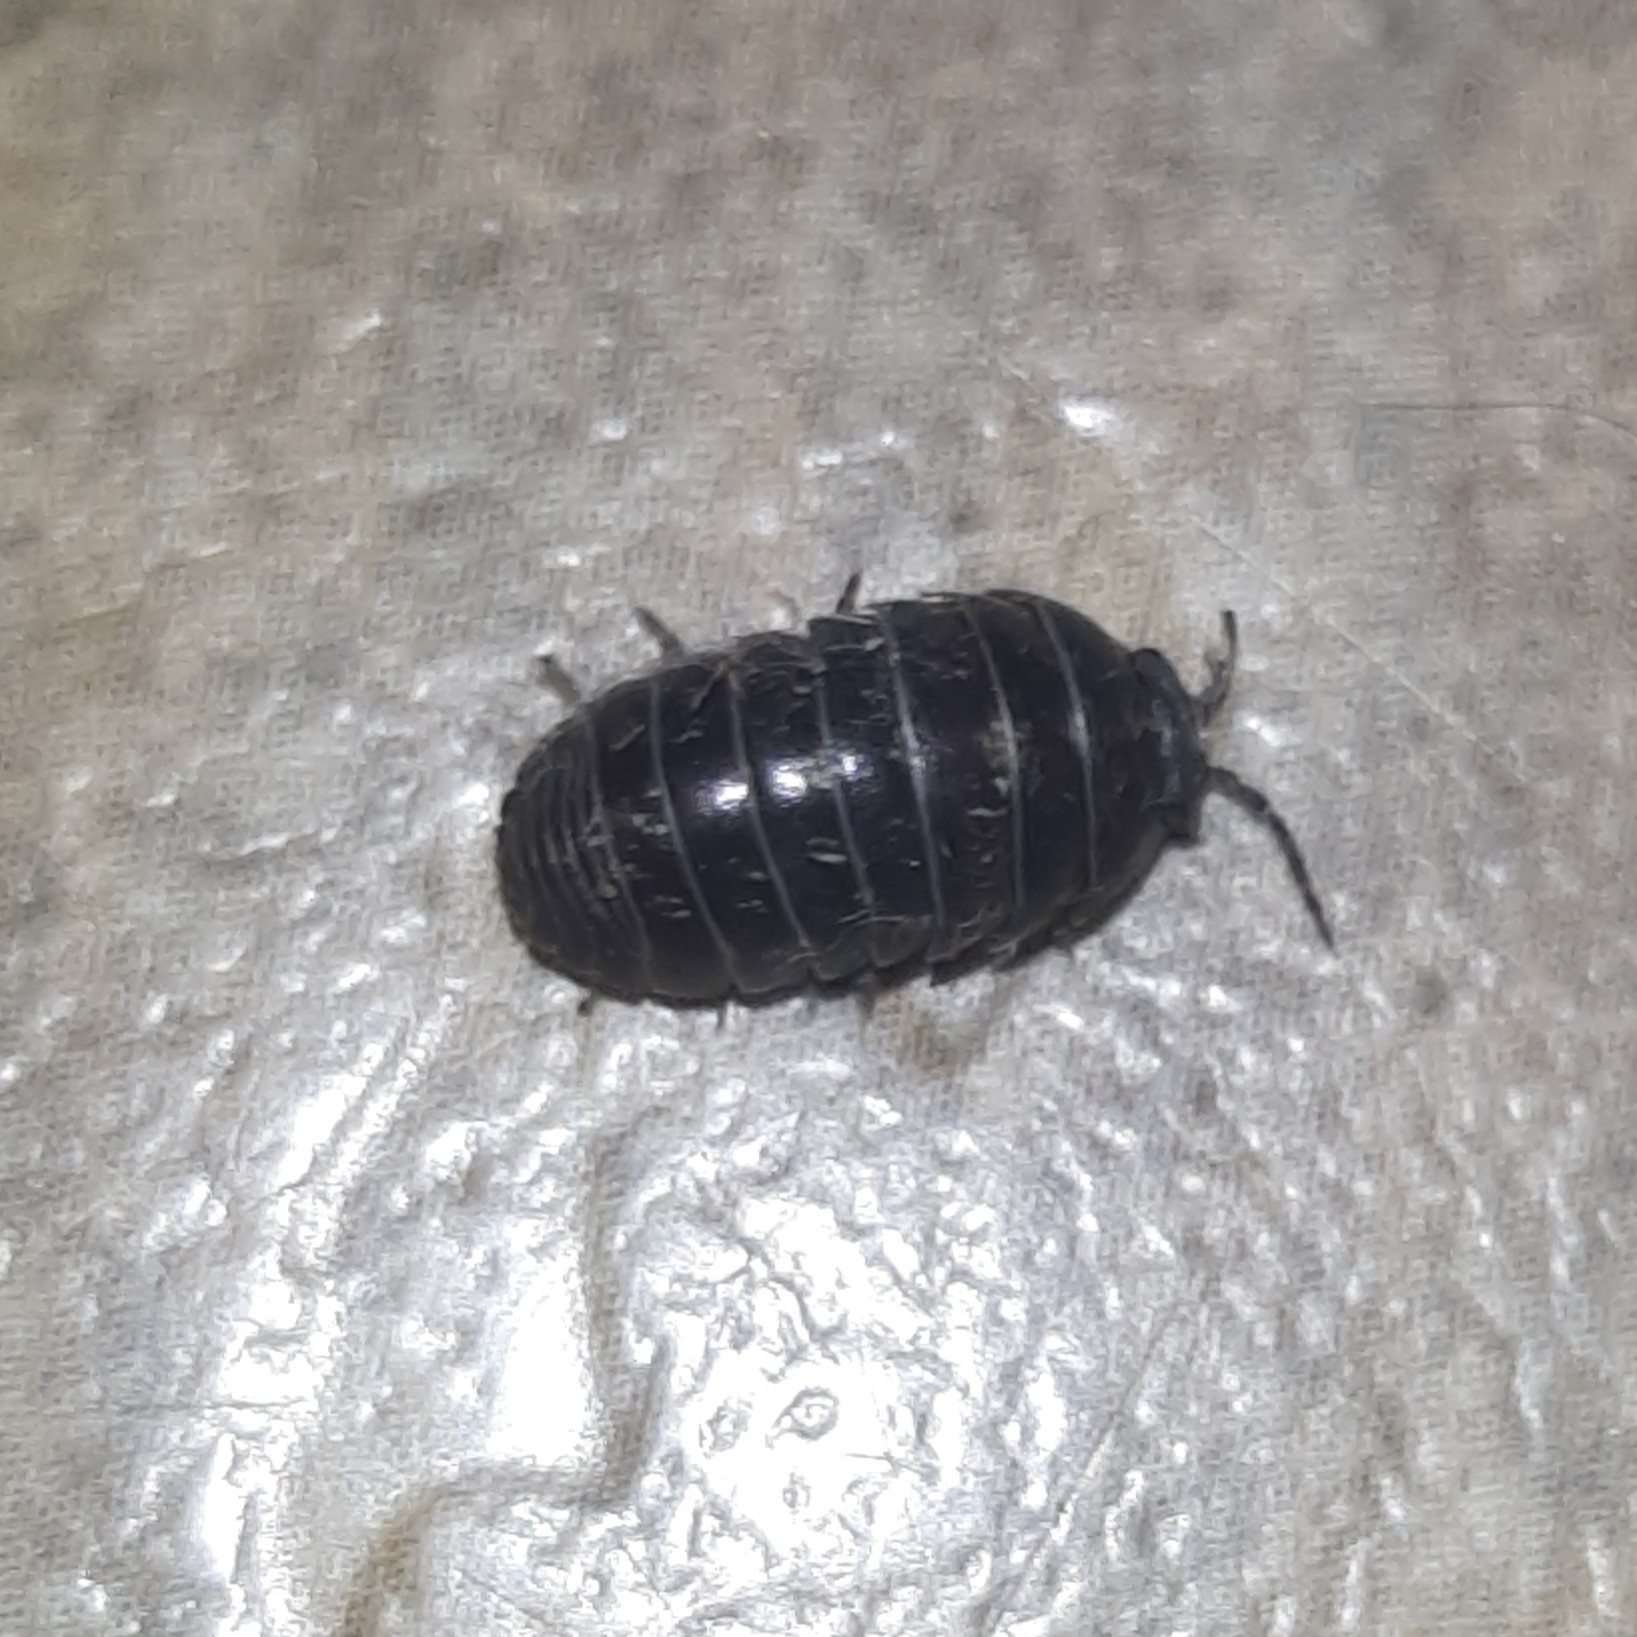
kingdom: Animalia
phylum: Arthropoda
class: Malacostraca
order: Isopoda
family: Armadillidiidae
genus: Armadillidium
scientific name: Armadillidium vulgare
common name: Common pill woodlouse
